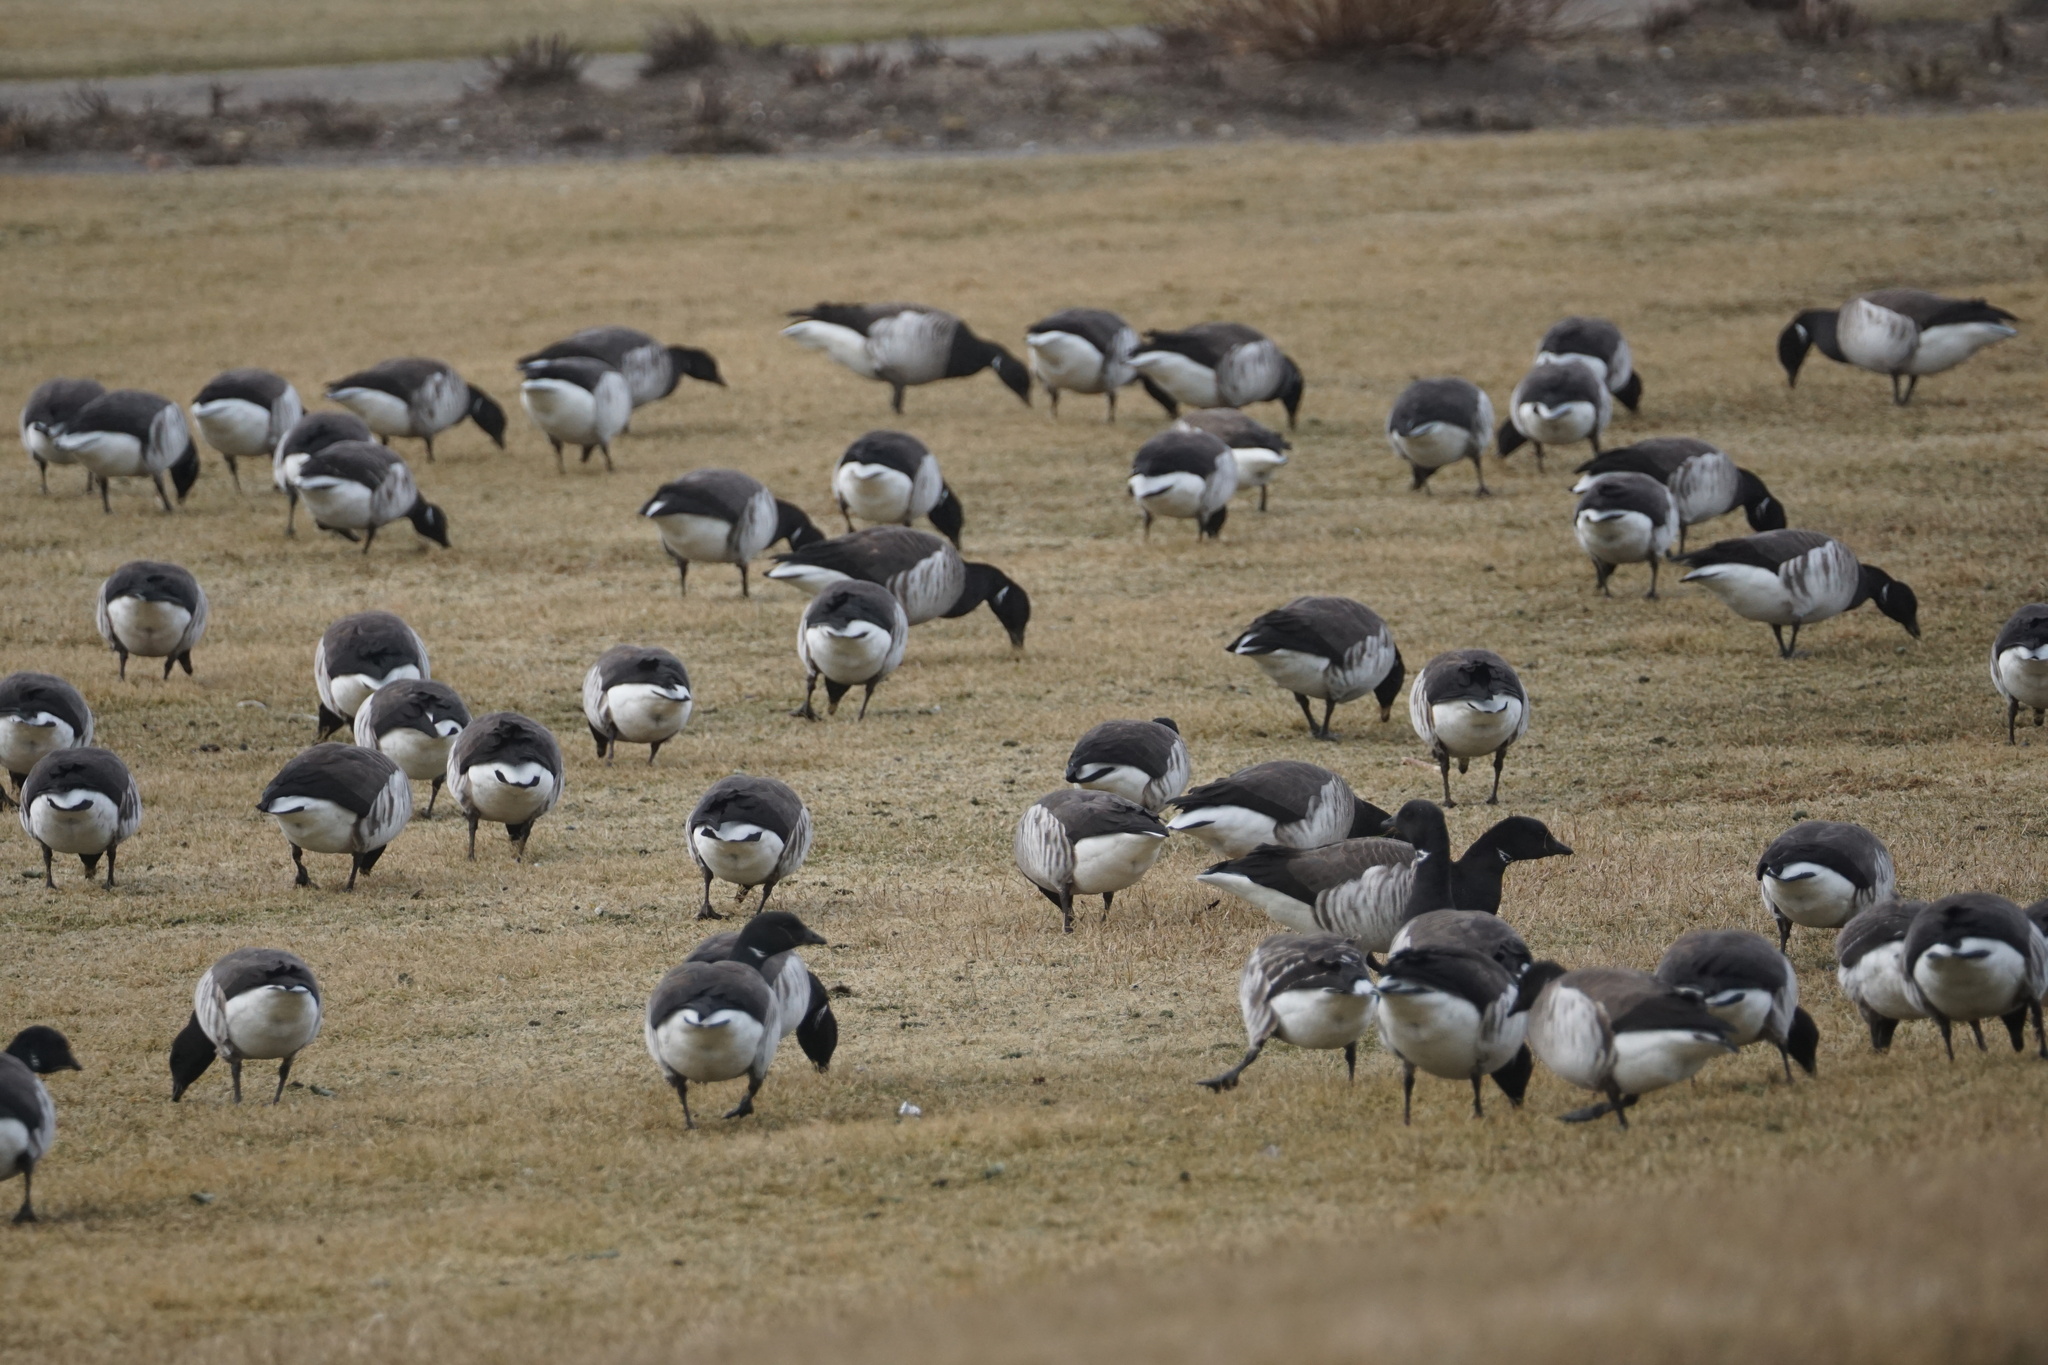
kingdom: Animalia
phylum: Chordata
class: Aves
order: Anseriformes
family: Anatidae
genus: Branta
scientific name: Branta bernicla
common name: Brant goose
